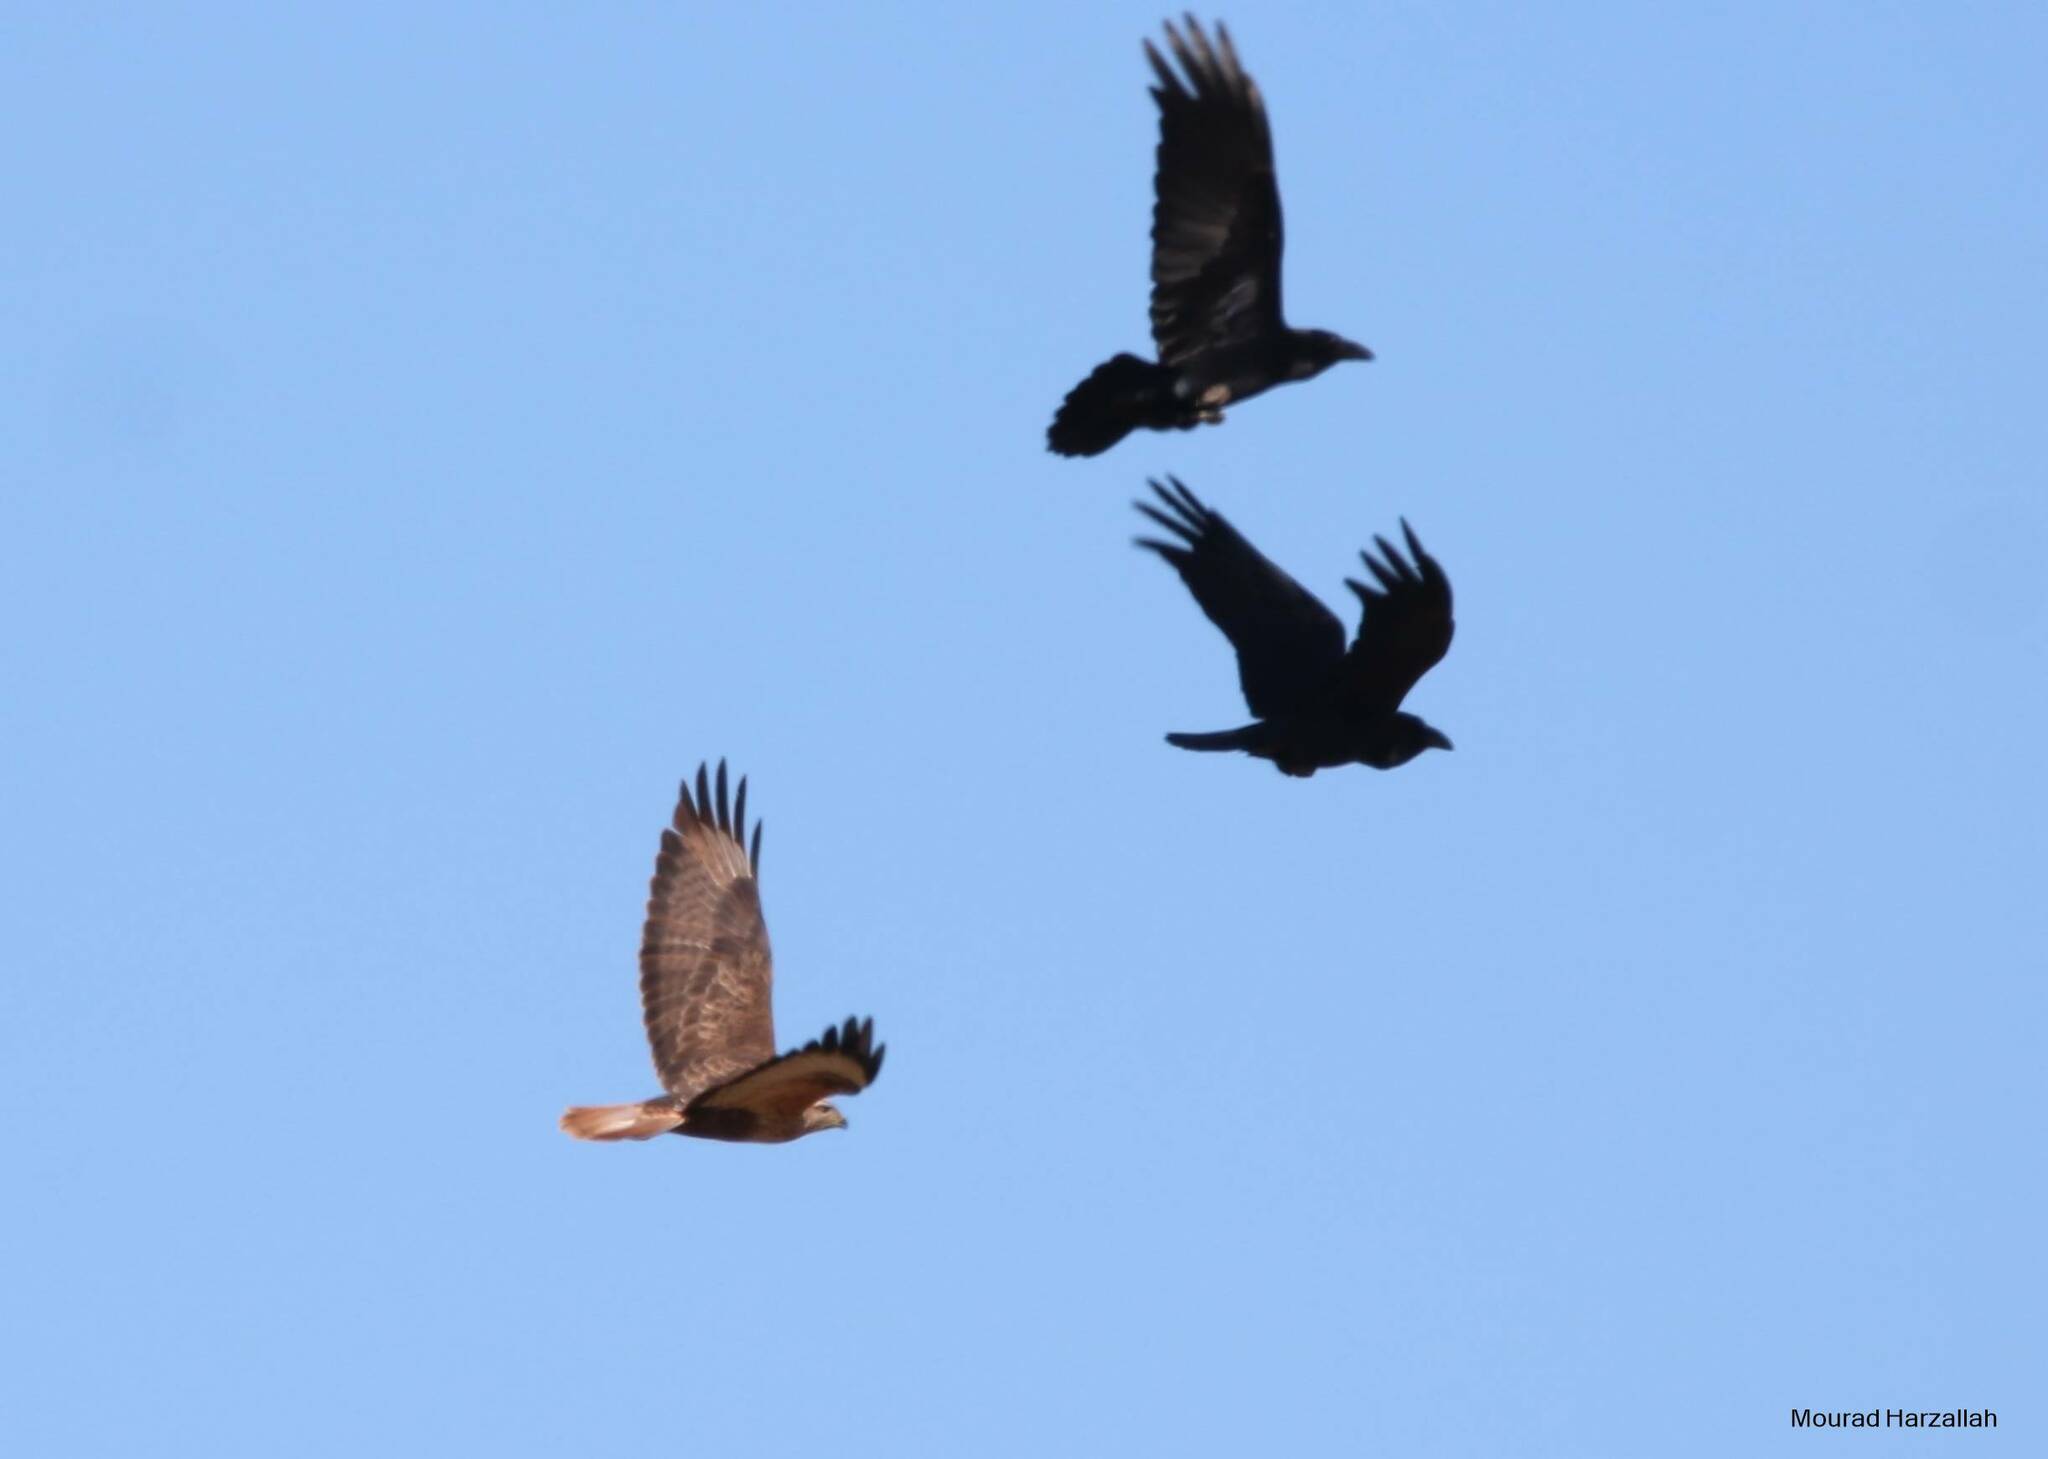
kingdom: Animalia
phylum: Chordata
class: Aves
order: Accipitriformes
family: Accipitridae
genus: Buteo
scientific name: Buteo rufinus
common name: Long-legged buzzard
